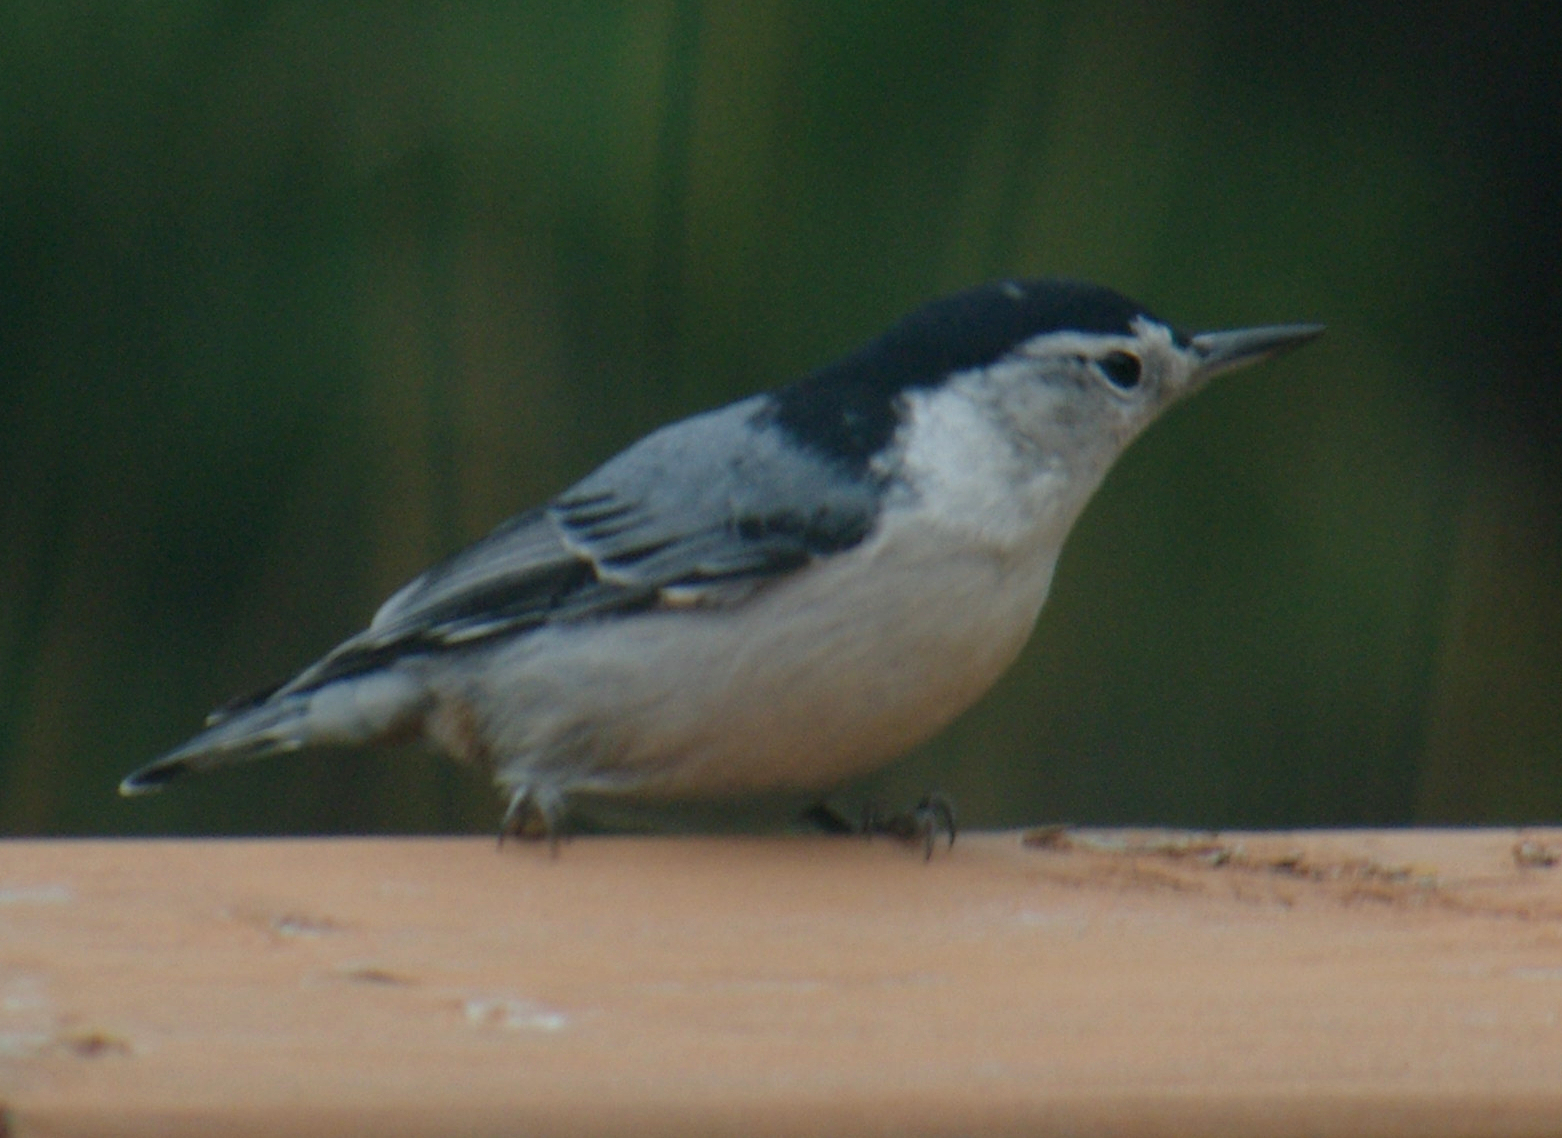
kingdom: Animalia
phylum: Chordata
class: Aves
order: Passeriformes
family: Sittidae
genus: Sitta
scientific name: Sitta carolinensis
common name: White-breasted nuthatch
